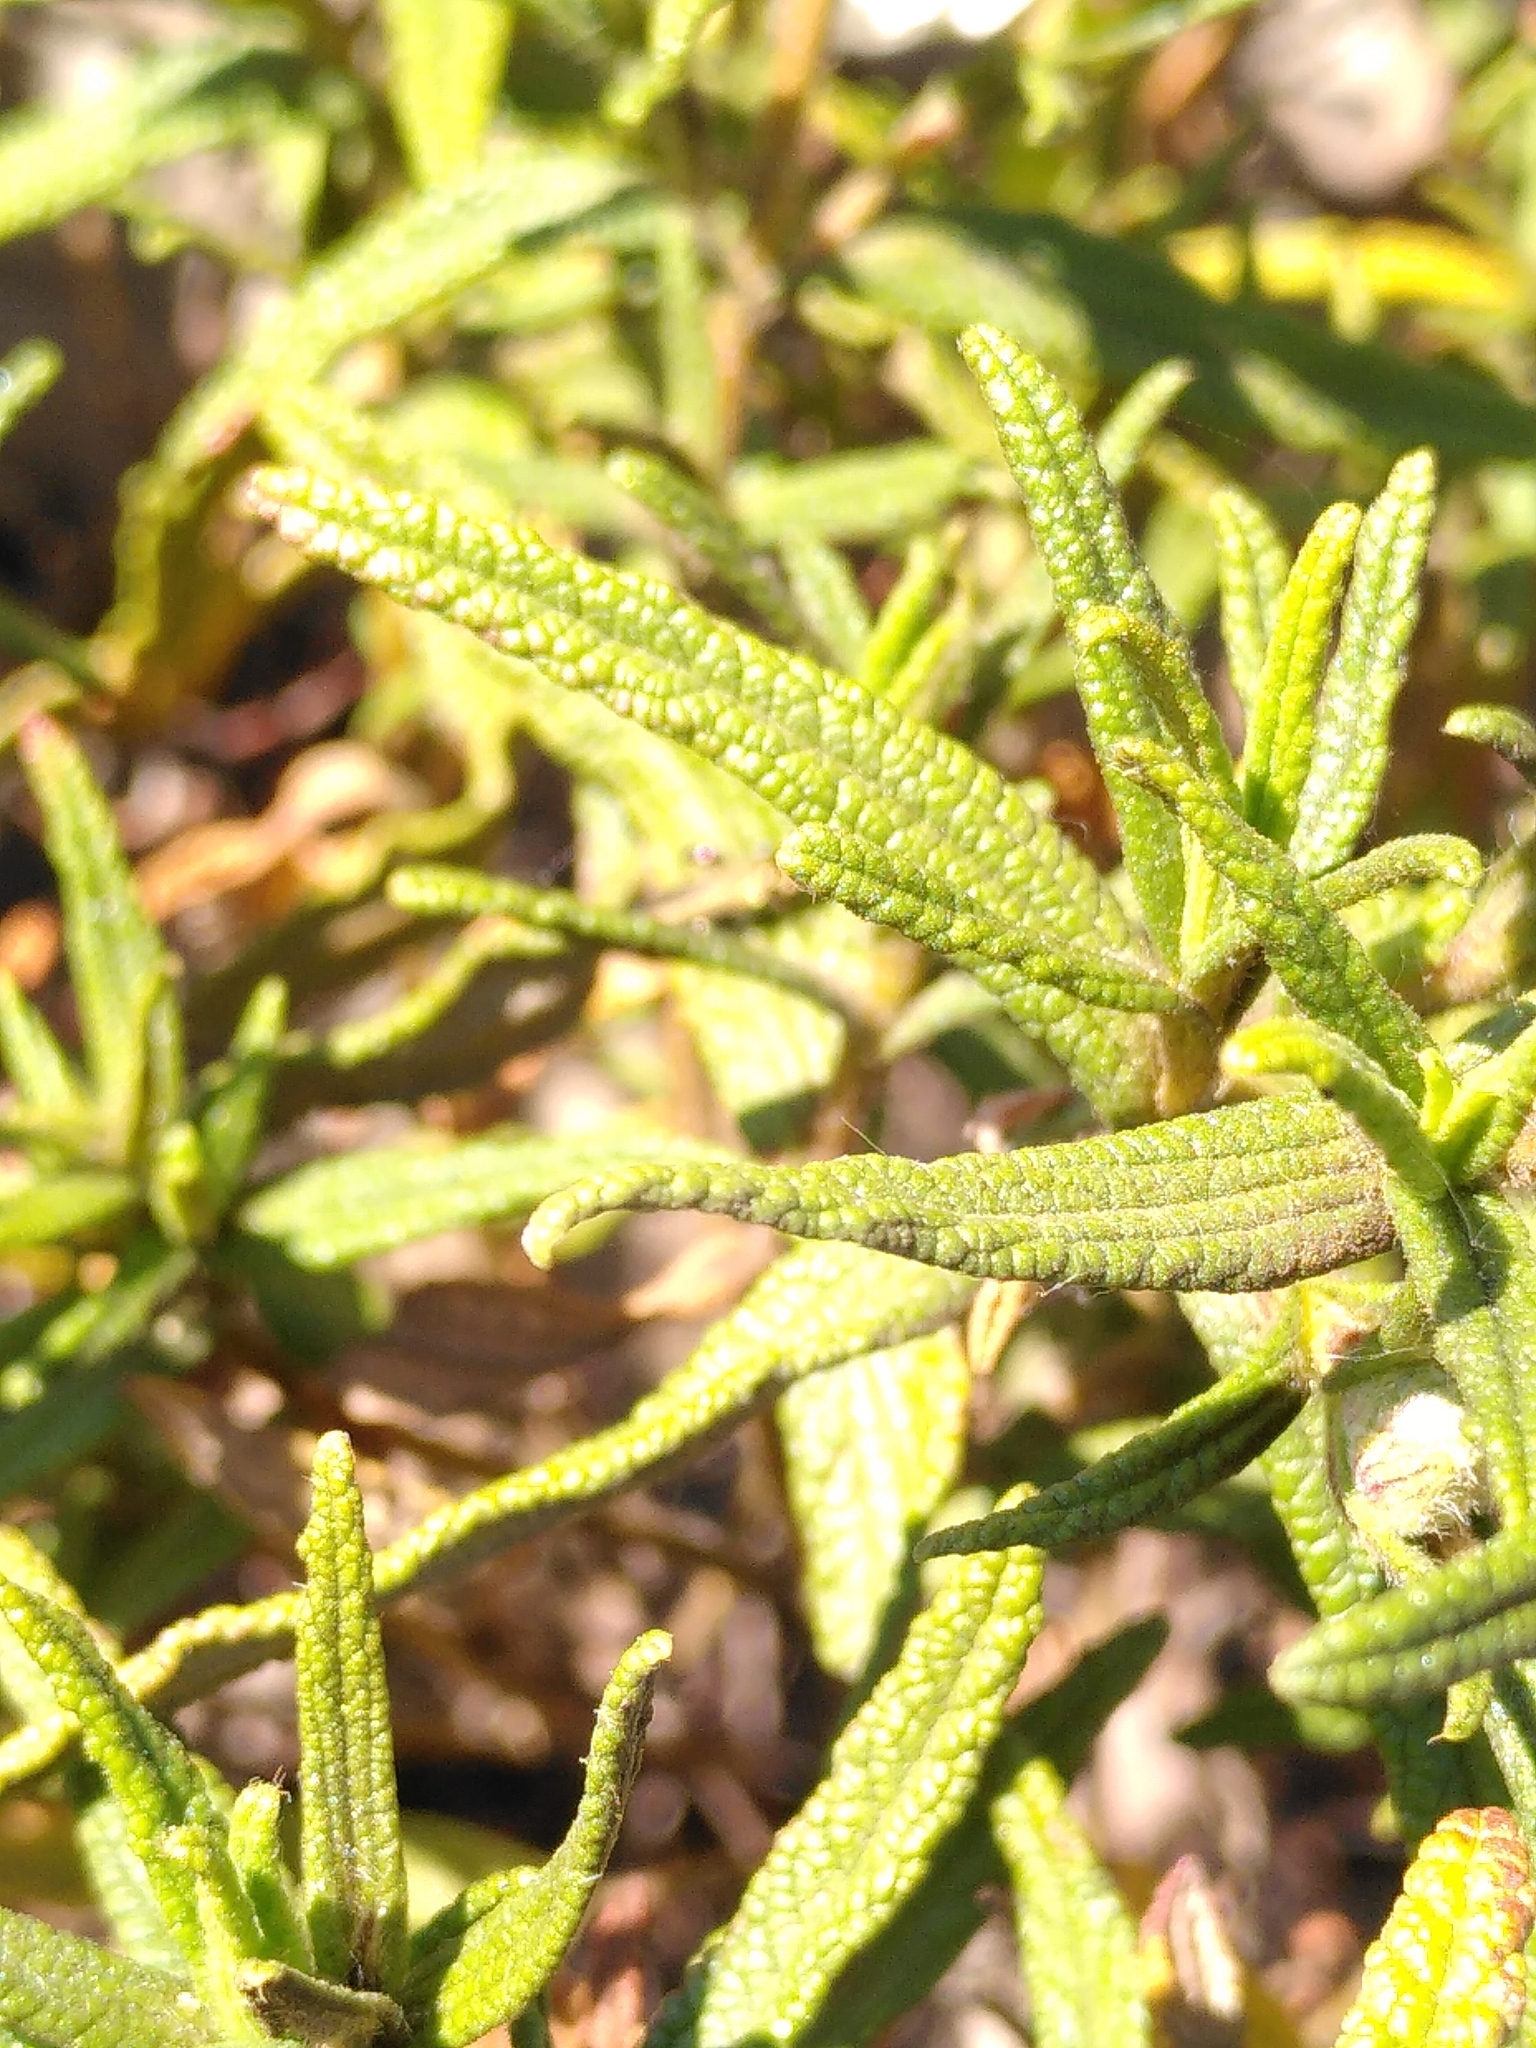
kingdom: Plantae
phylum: Tracheophyta
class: Magnoliopsida
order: Malvales
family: Cistaceae
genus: Cistus
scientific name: Cistus monspeliensis
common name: Montpelier cistus
